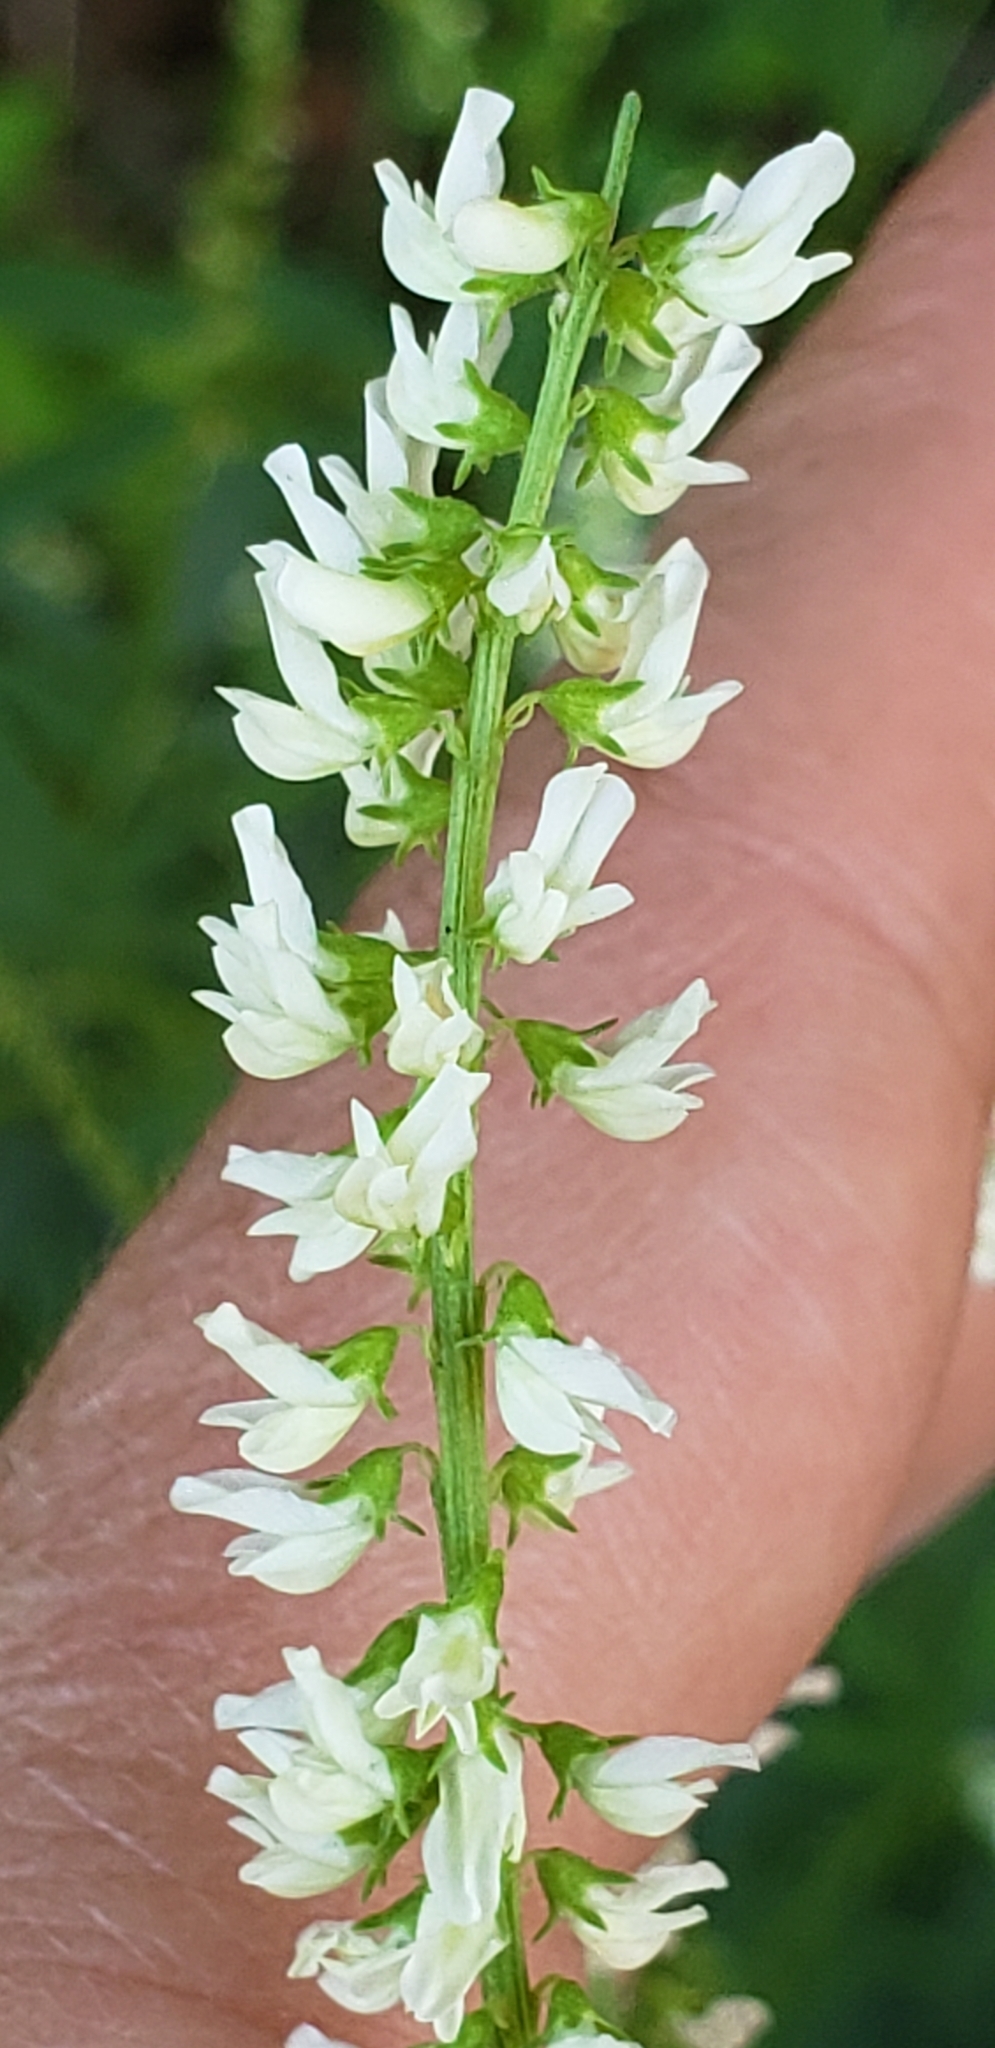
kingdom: Plantae
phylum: Tracheophyta
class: Magnoliopsida
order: Fabales
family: Fabaceae
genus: Melilotus
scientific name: Melilotus albus
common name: White melilot
